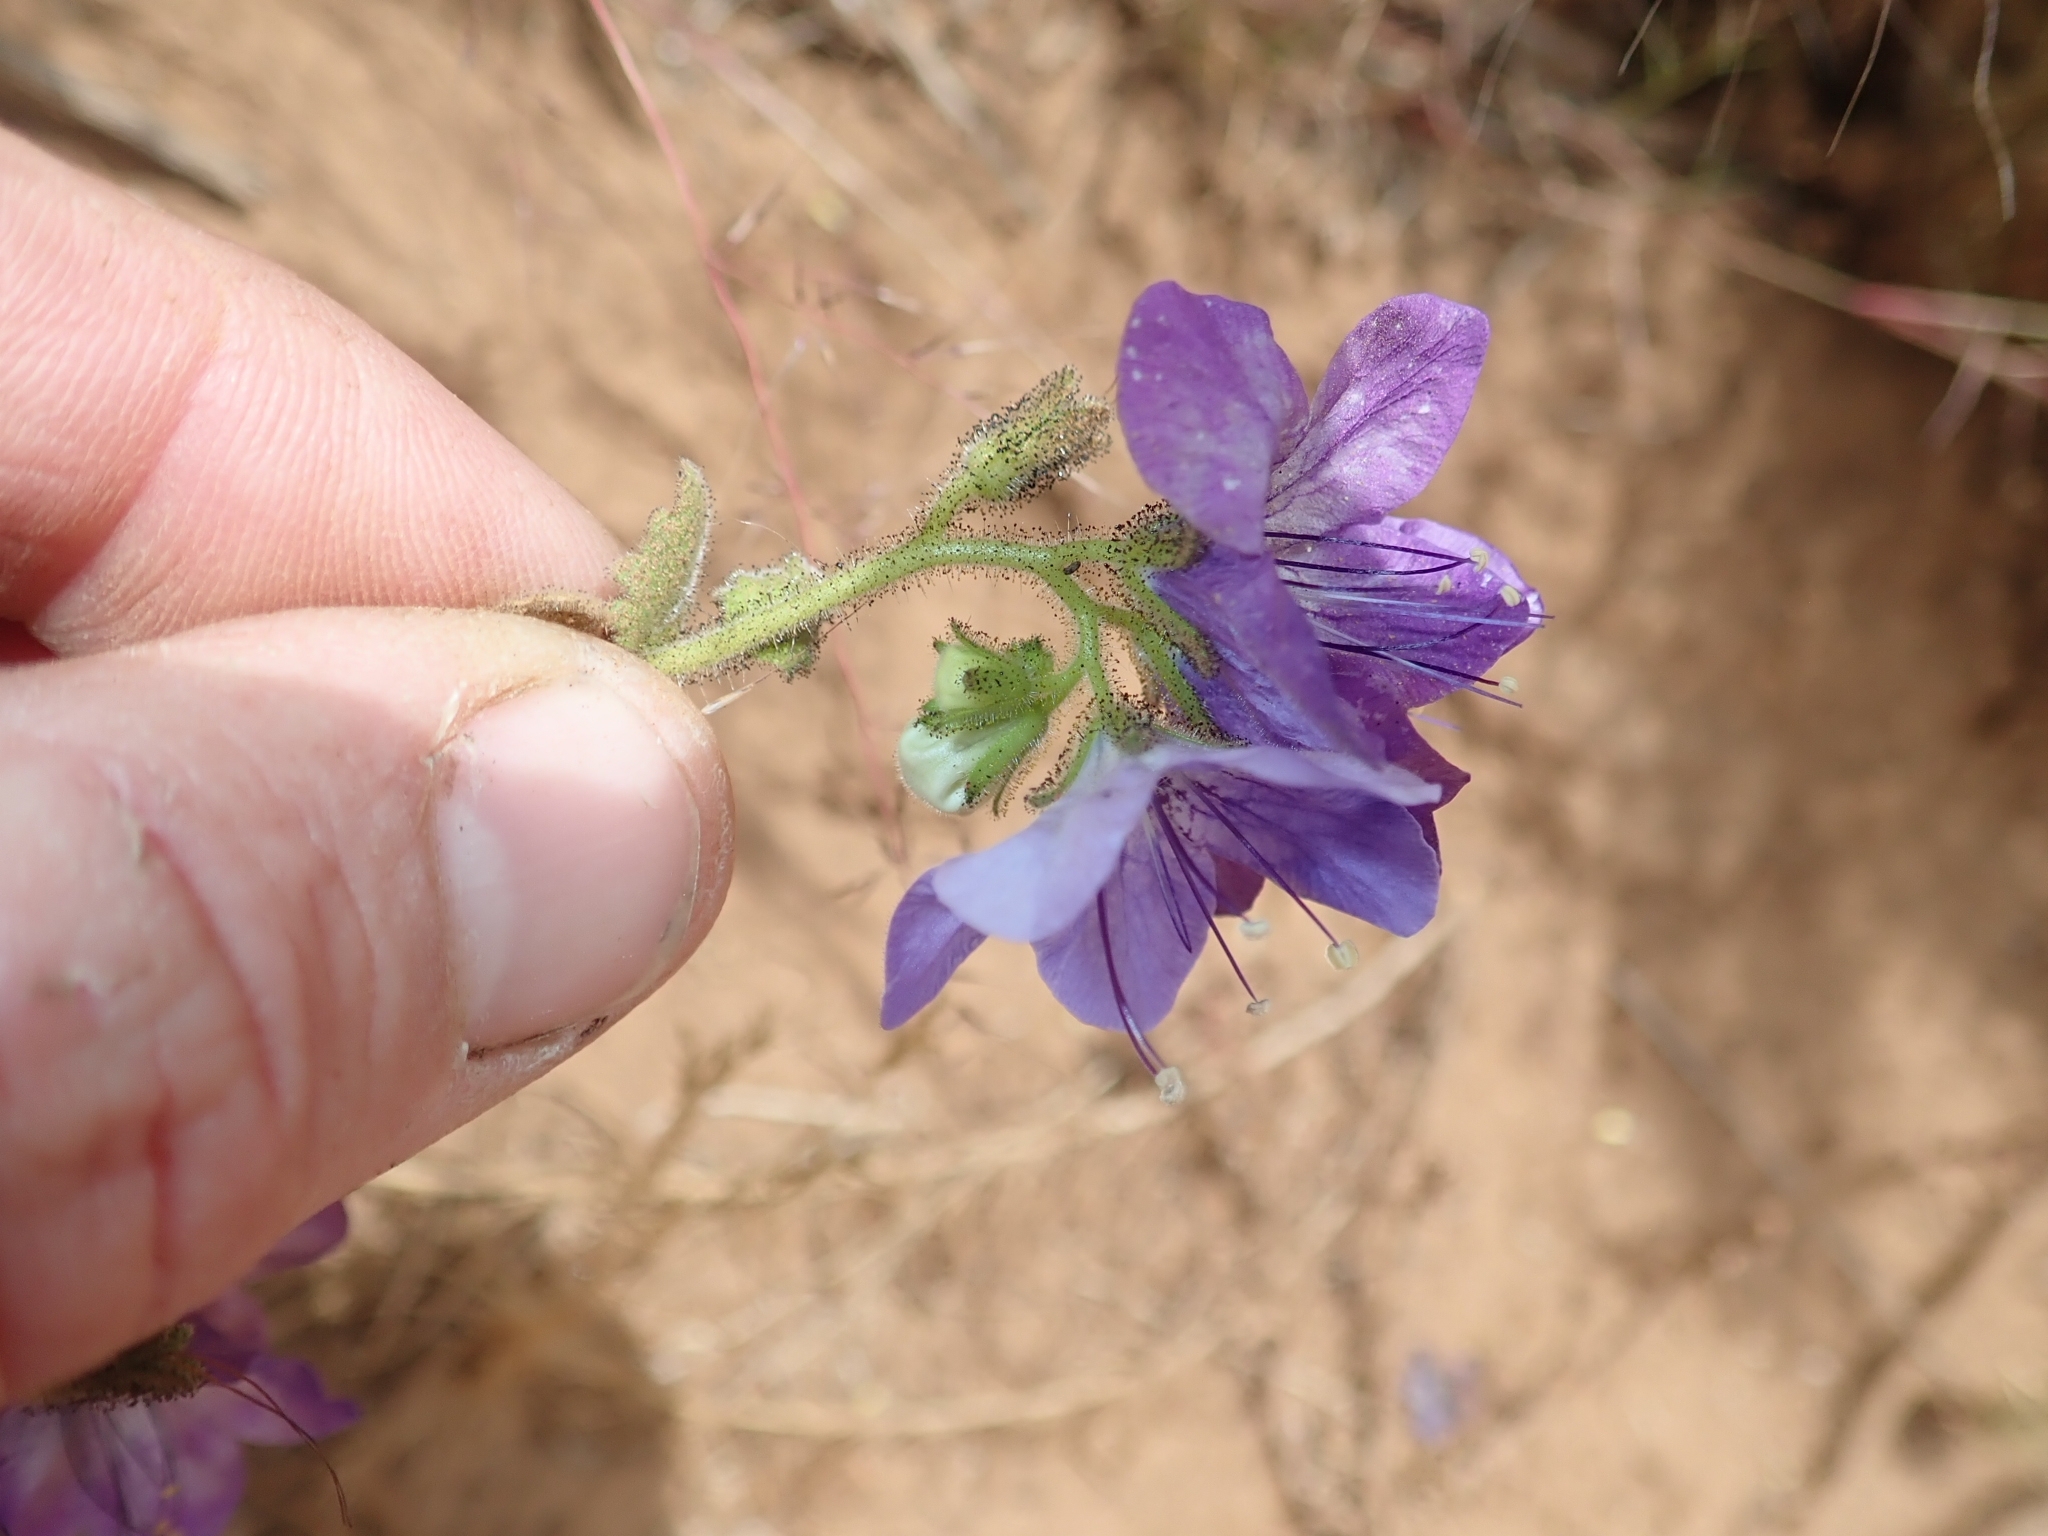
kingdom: Plantae
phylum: Tracheophyta
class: Magnoliopsida
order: Boraginales
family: Hydrophyllaceae
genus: Phacelia
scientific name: Phacelia grandiflora
